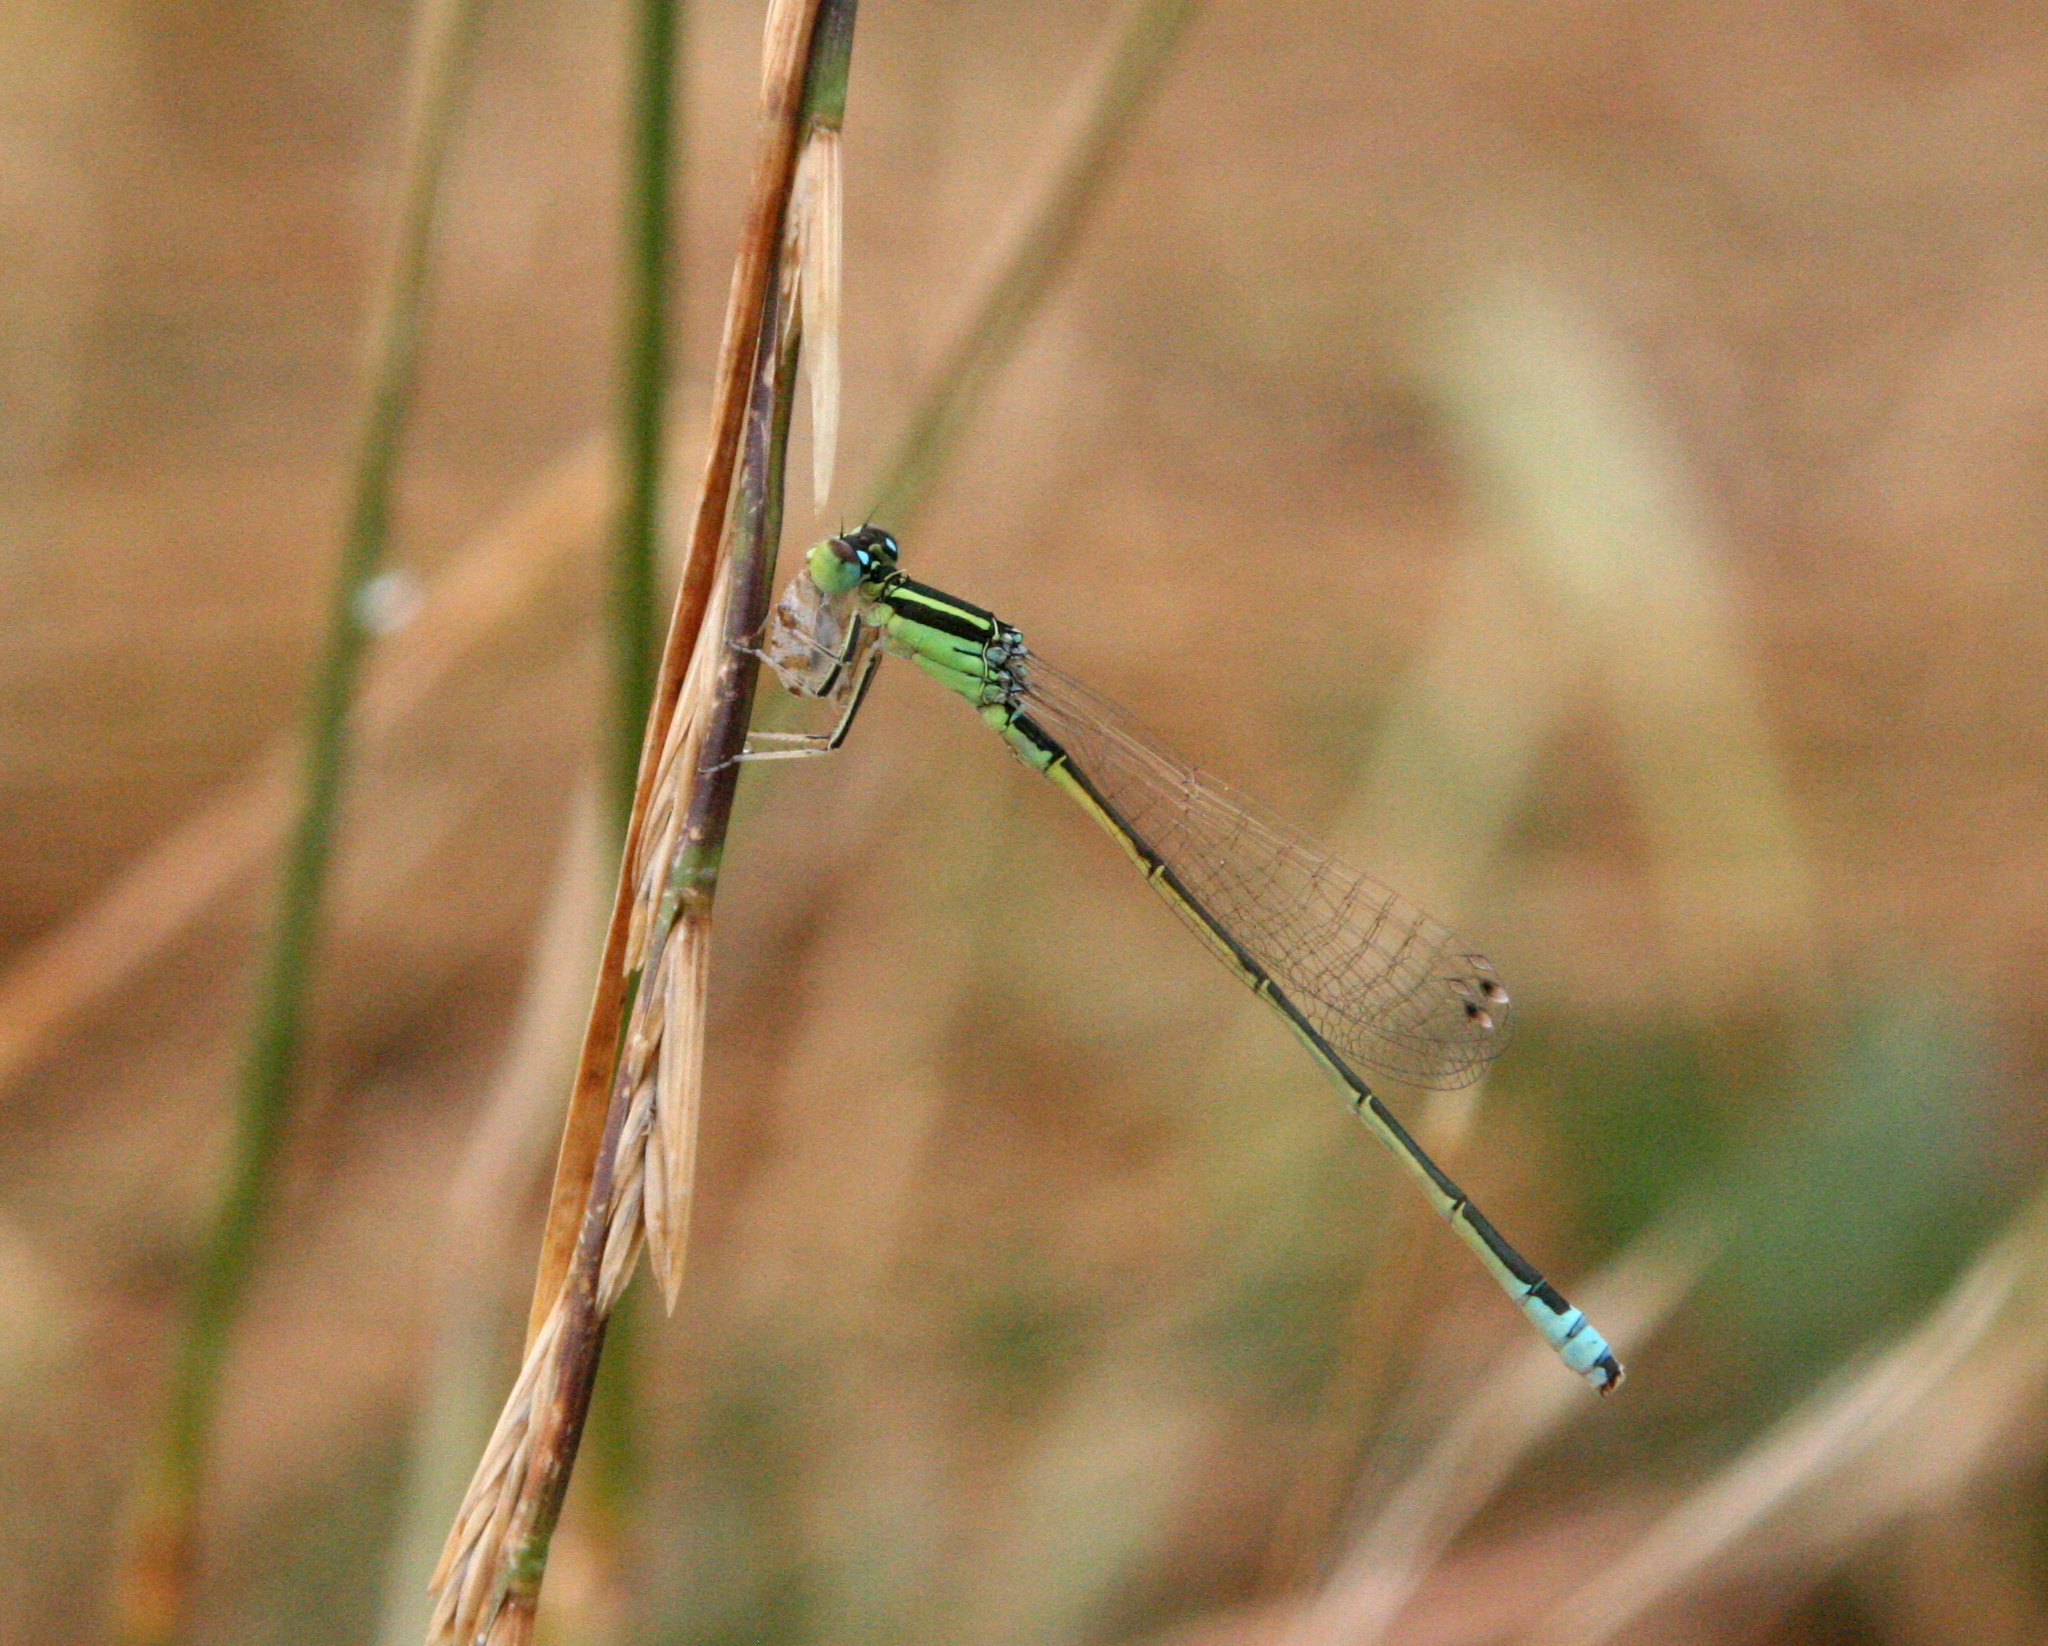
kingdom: Animalia
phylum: Arthropoda
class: Insecta
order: Odonata
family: Coenagrionidae
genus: Ischnura
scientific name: Ischnura pumilio
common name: Scarce blue-tailed damselfly
